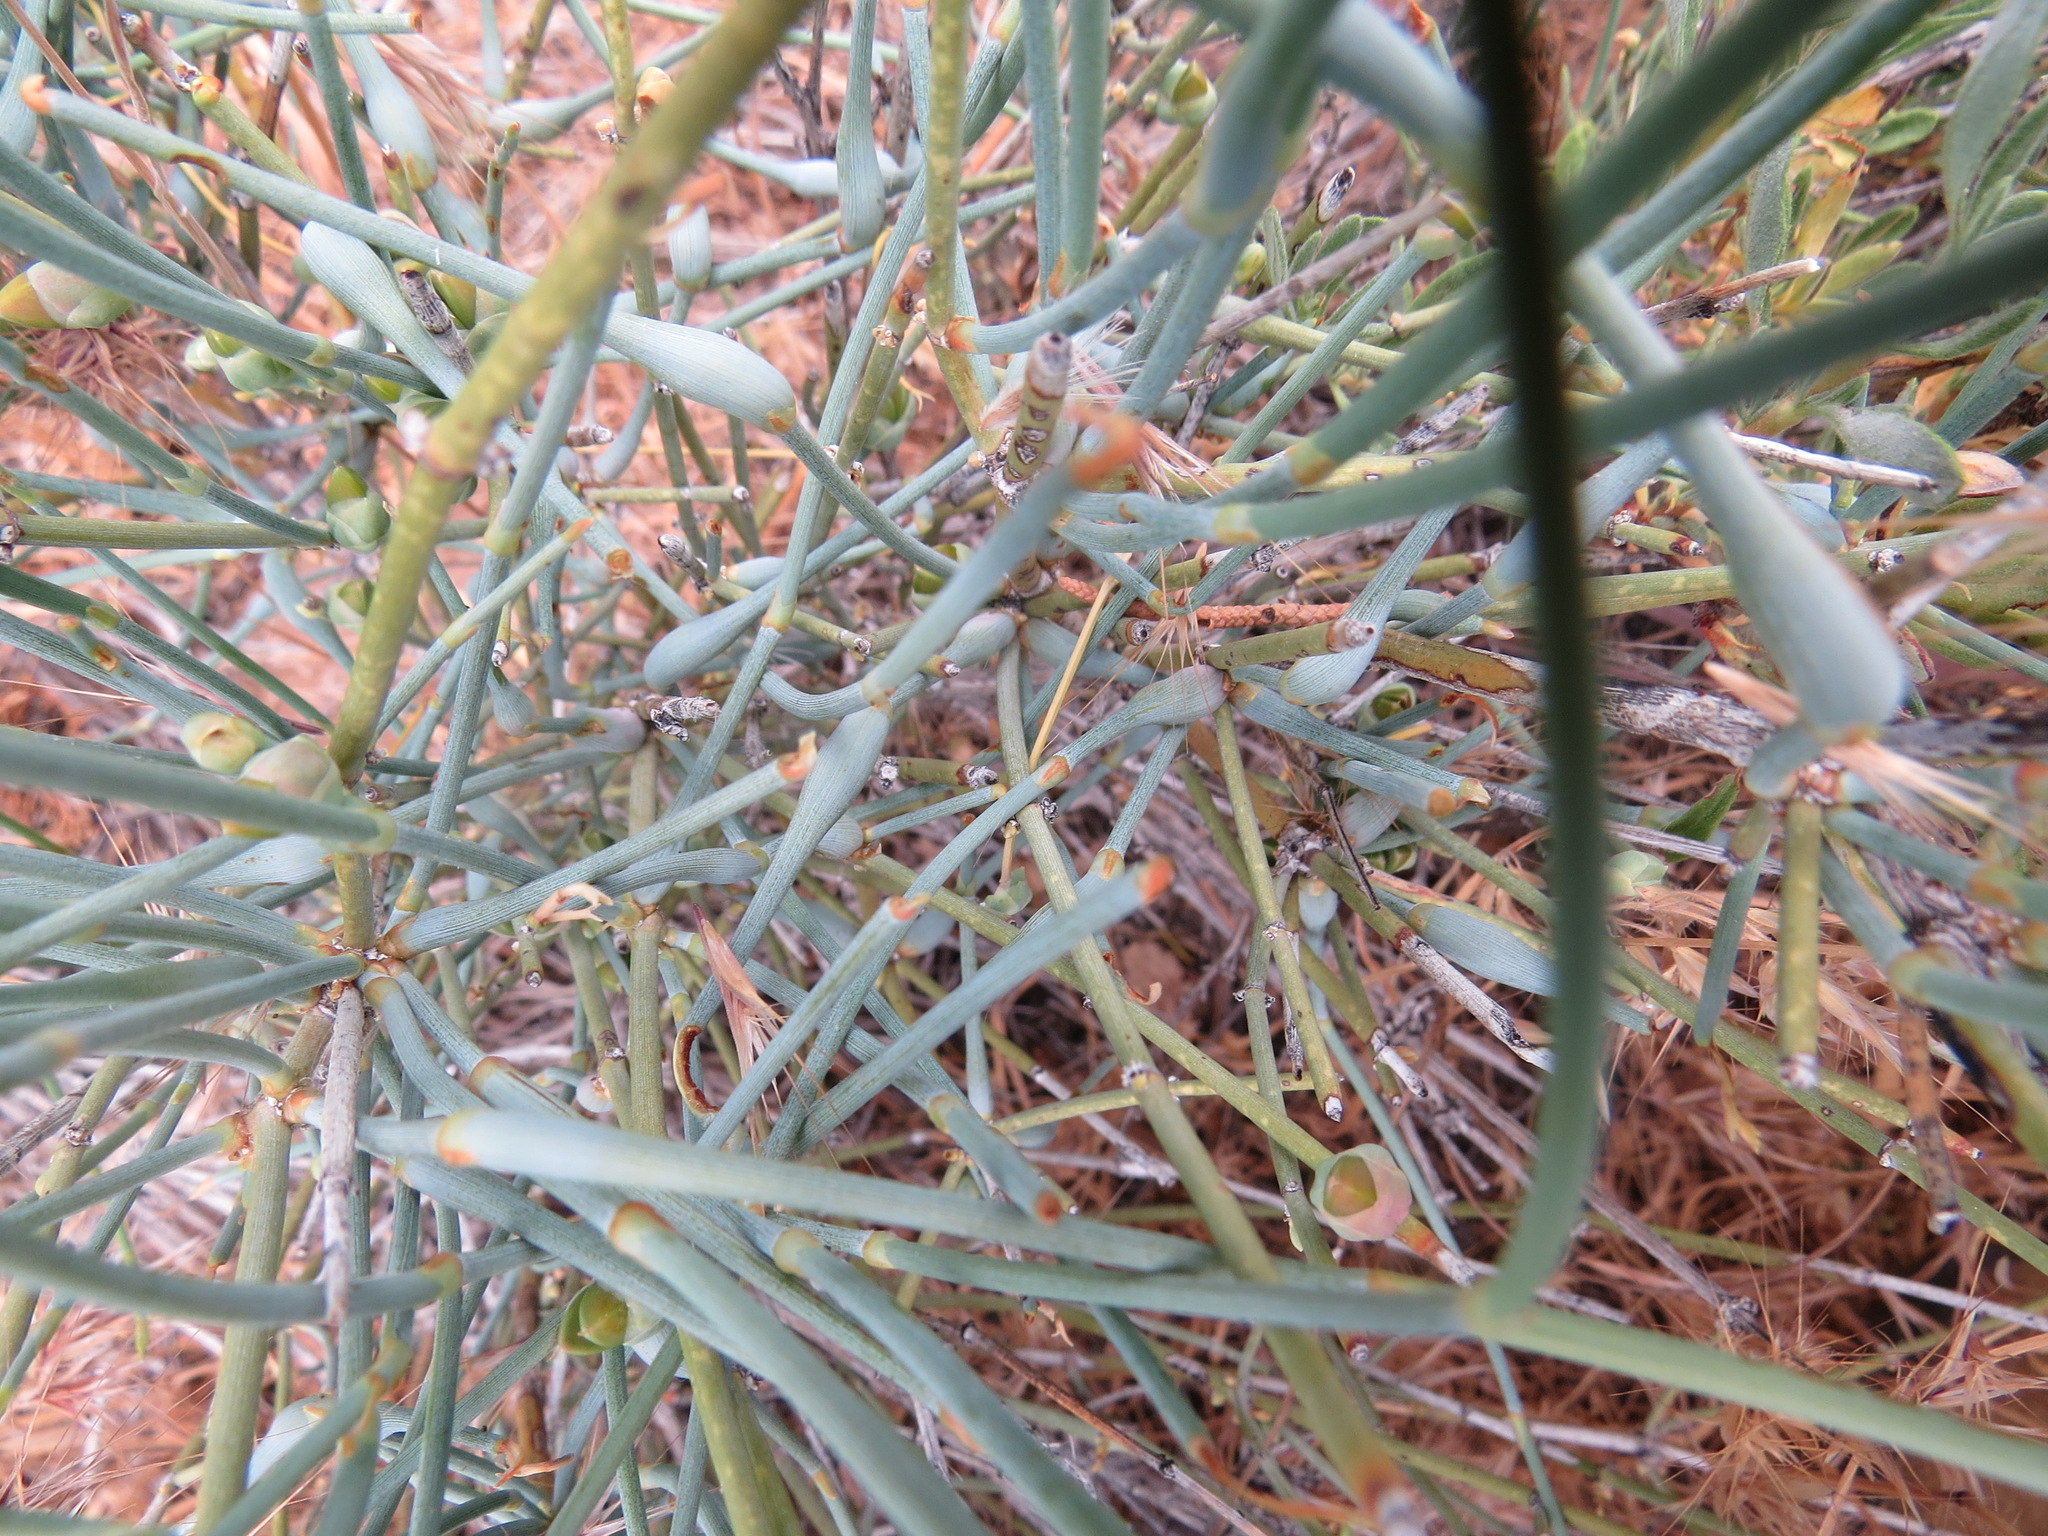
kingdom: Animalia
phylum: Arthropoda
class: Insecta
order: Diptera
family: Cecidomyiidae
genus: Lasioptera
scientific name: Lasioptera ephedrae
